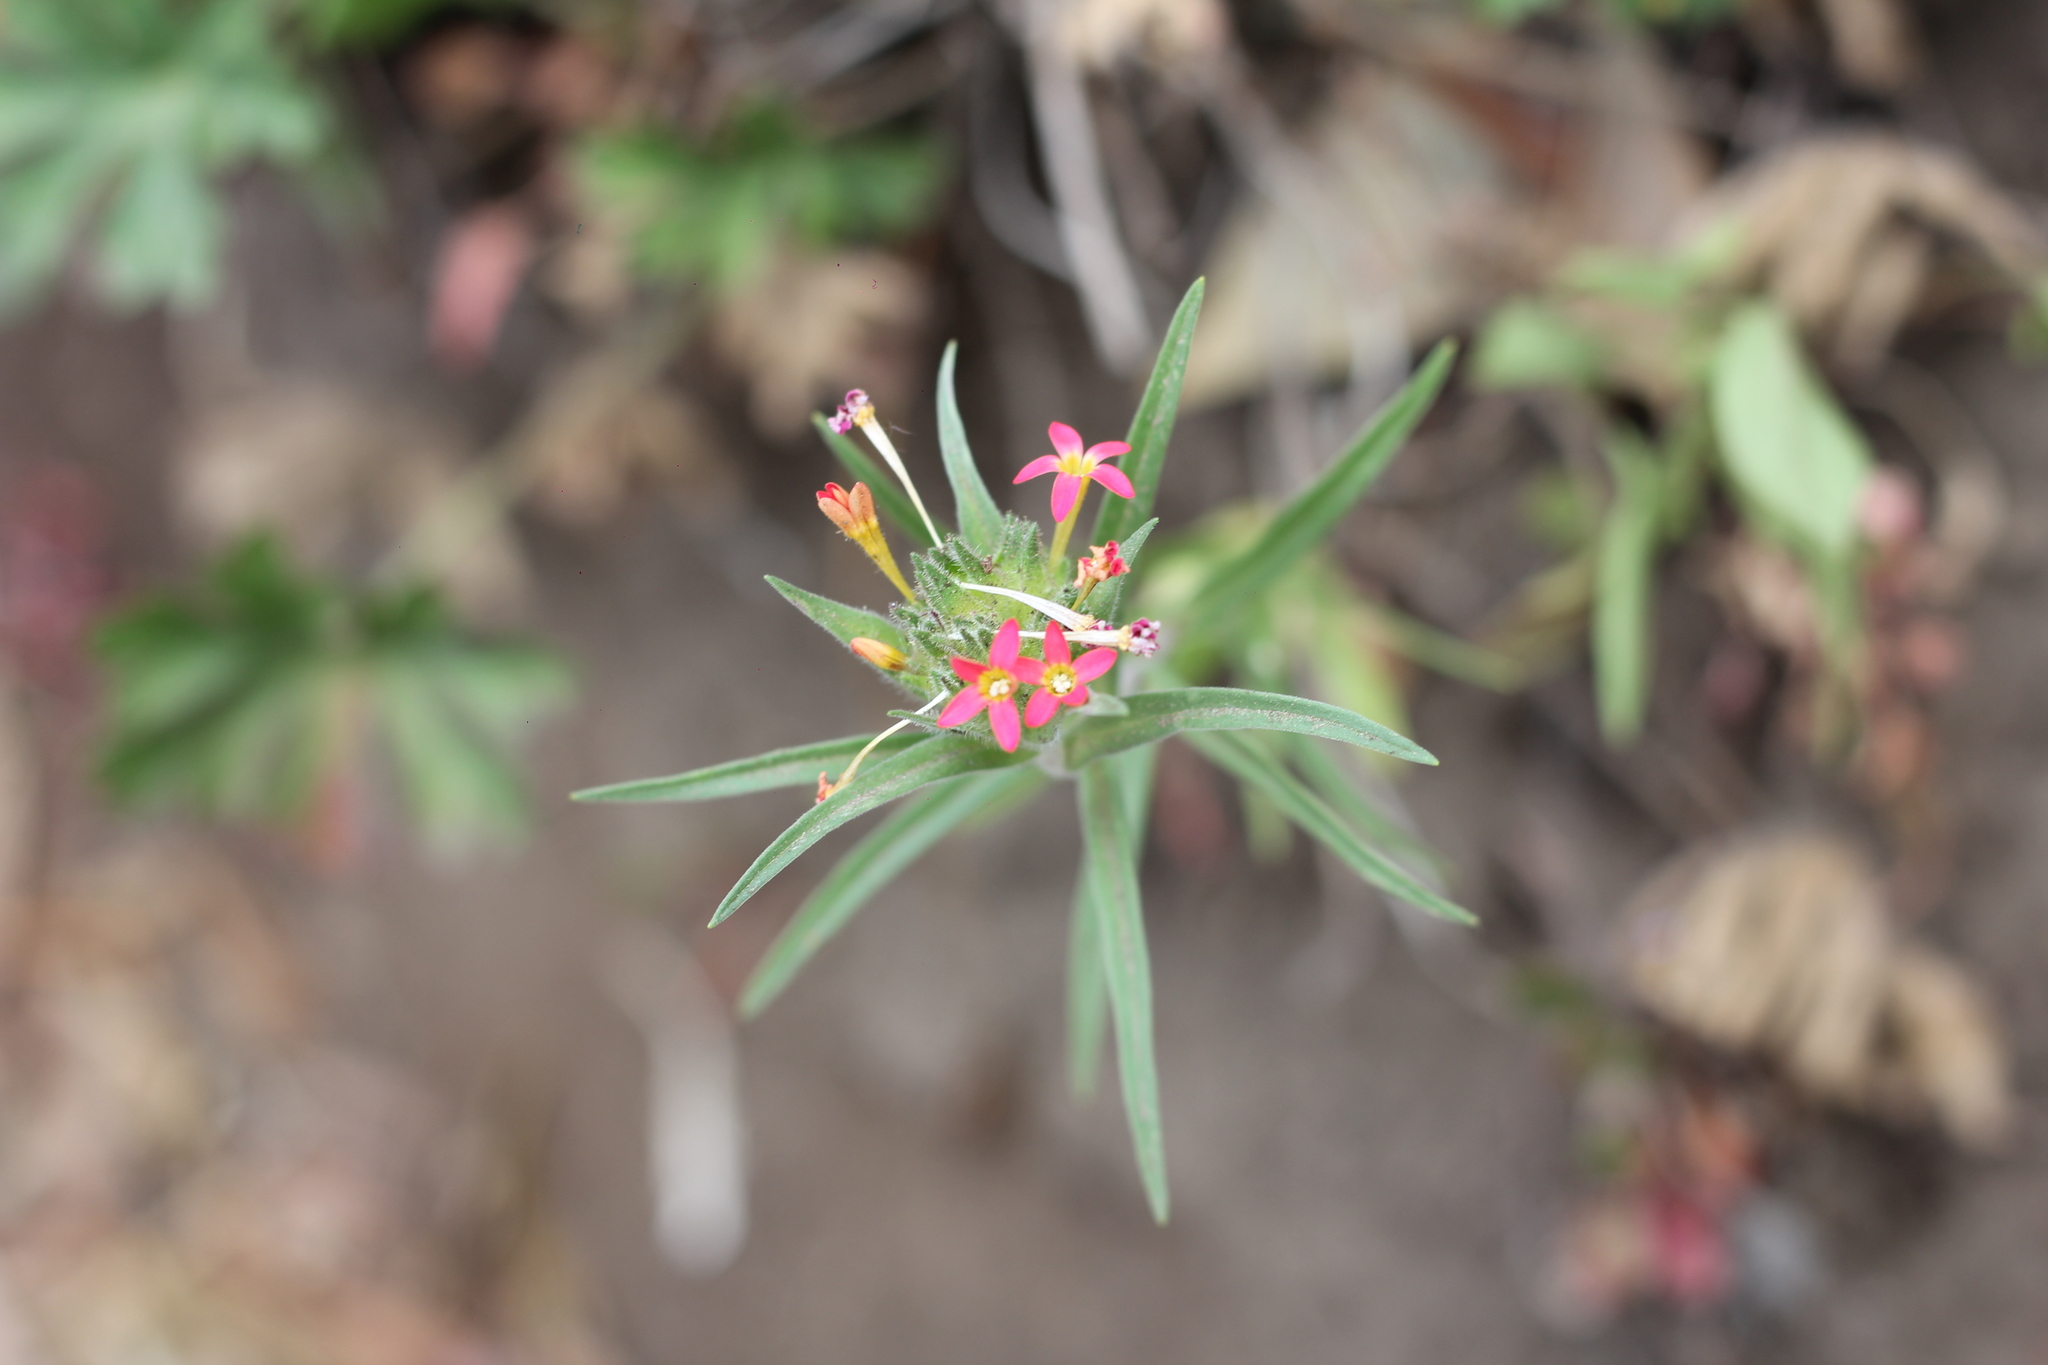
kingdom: Plantae
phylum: Tracheophyta
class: Magnoliopsida
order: Ericales
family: Polemoniaceae
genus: Collomia
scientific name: Collomia biflora
